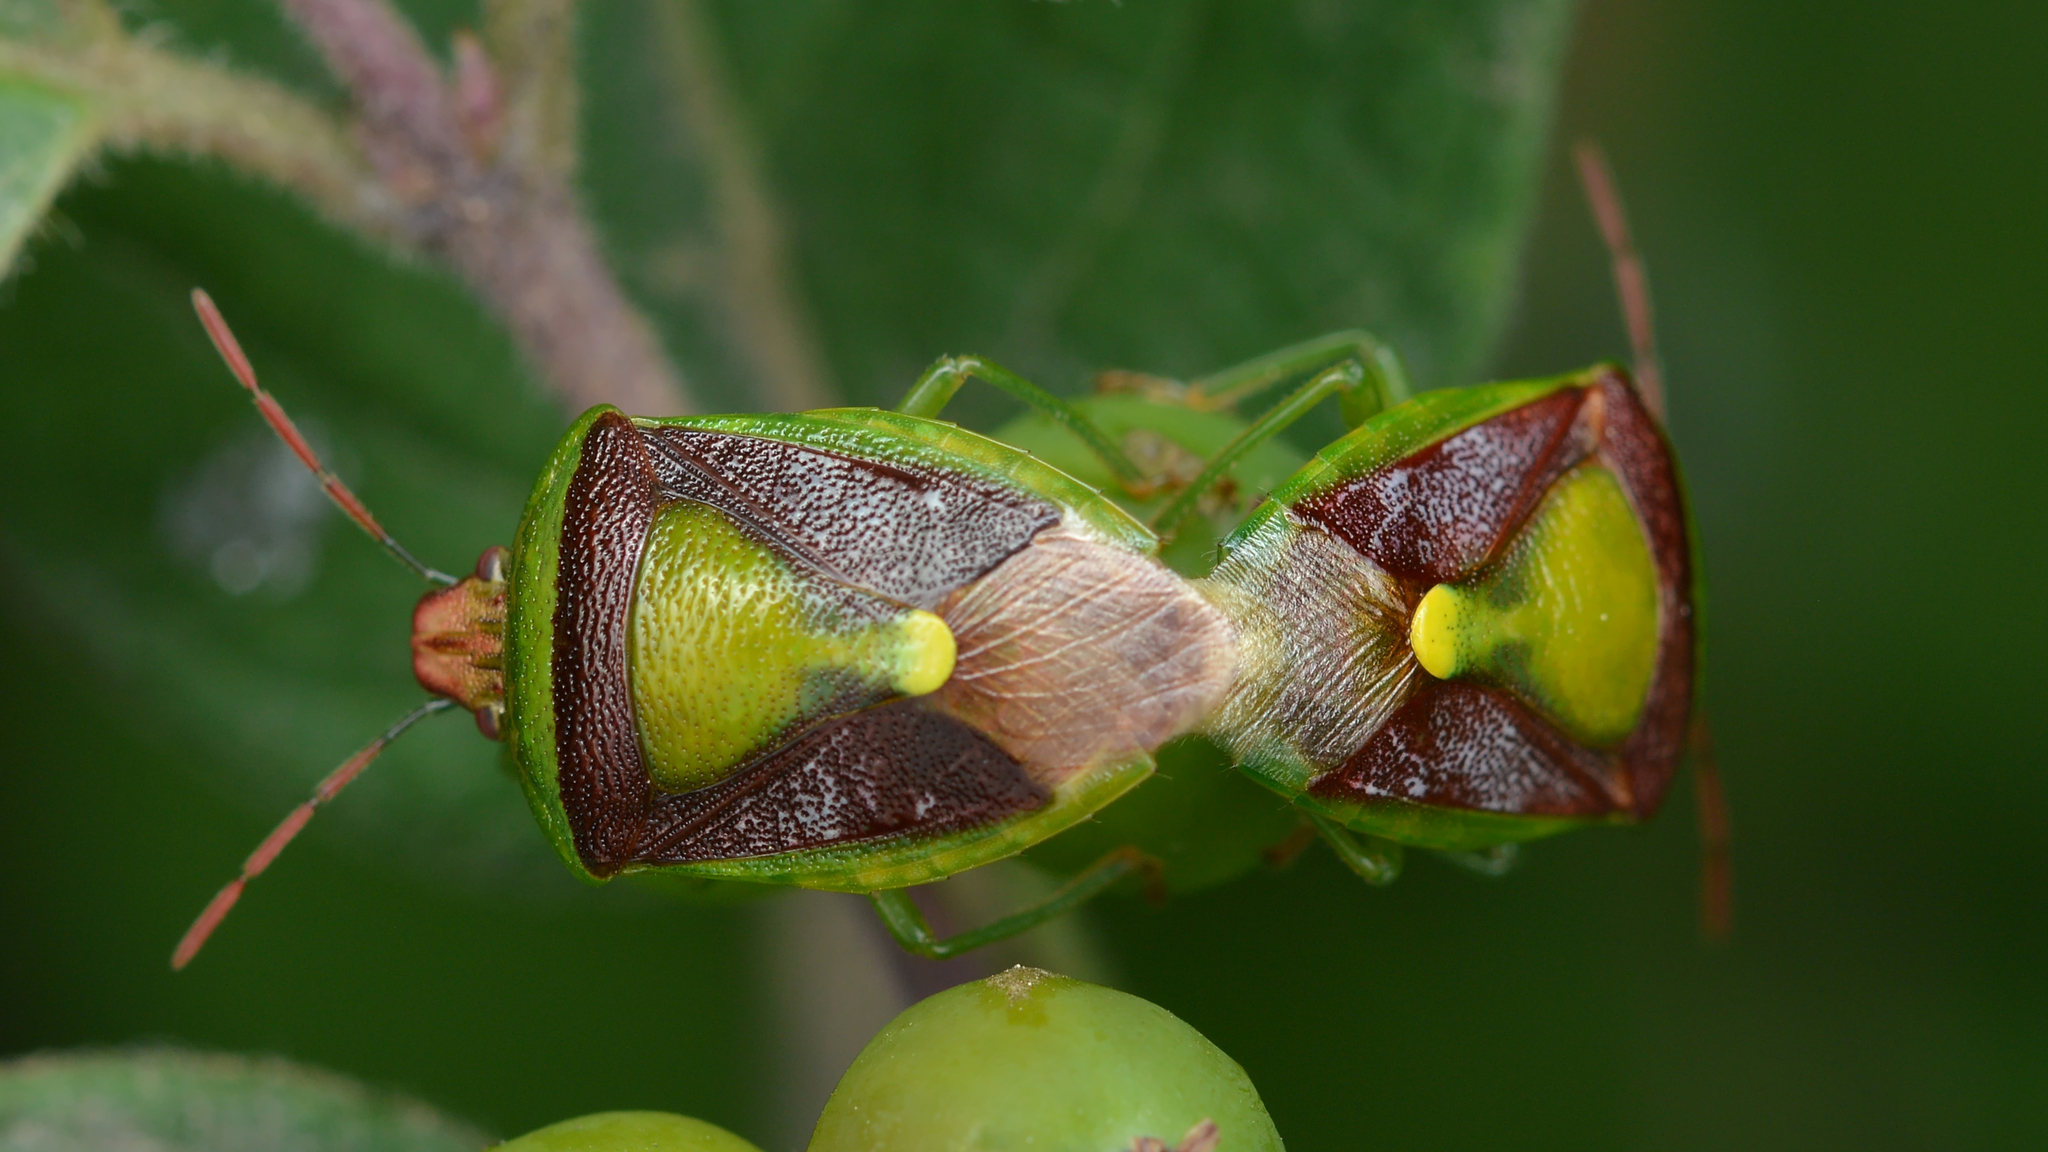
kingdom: Animalia
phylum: Arthropoda
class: Insecta
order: Hemiptera
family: Pentatomidae
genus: Banasa
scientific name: Banasa dimidiata
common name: Green burgundy stink bug
